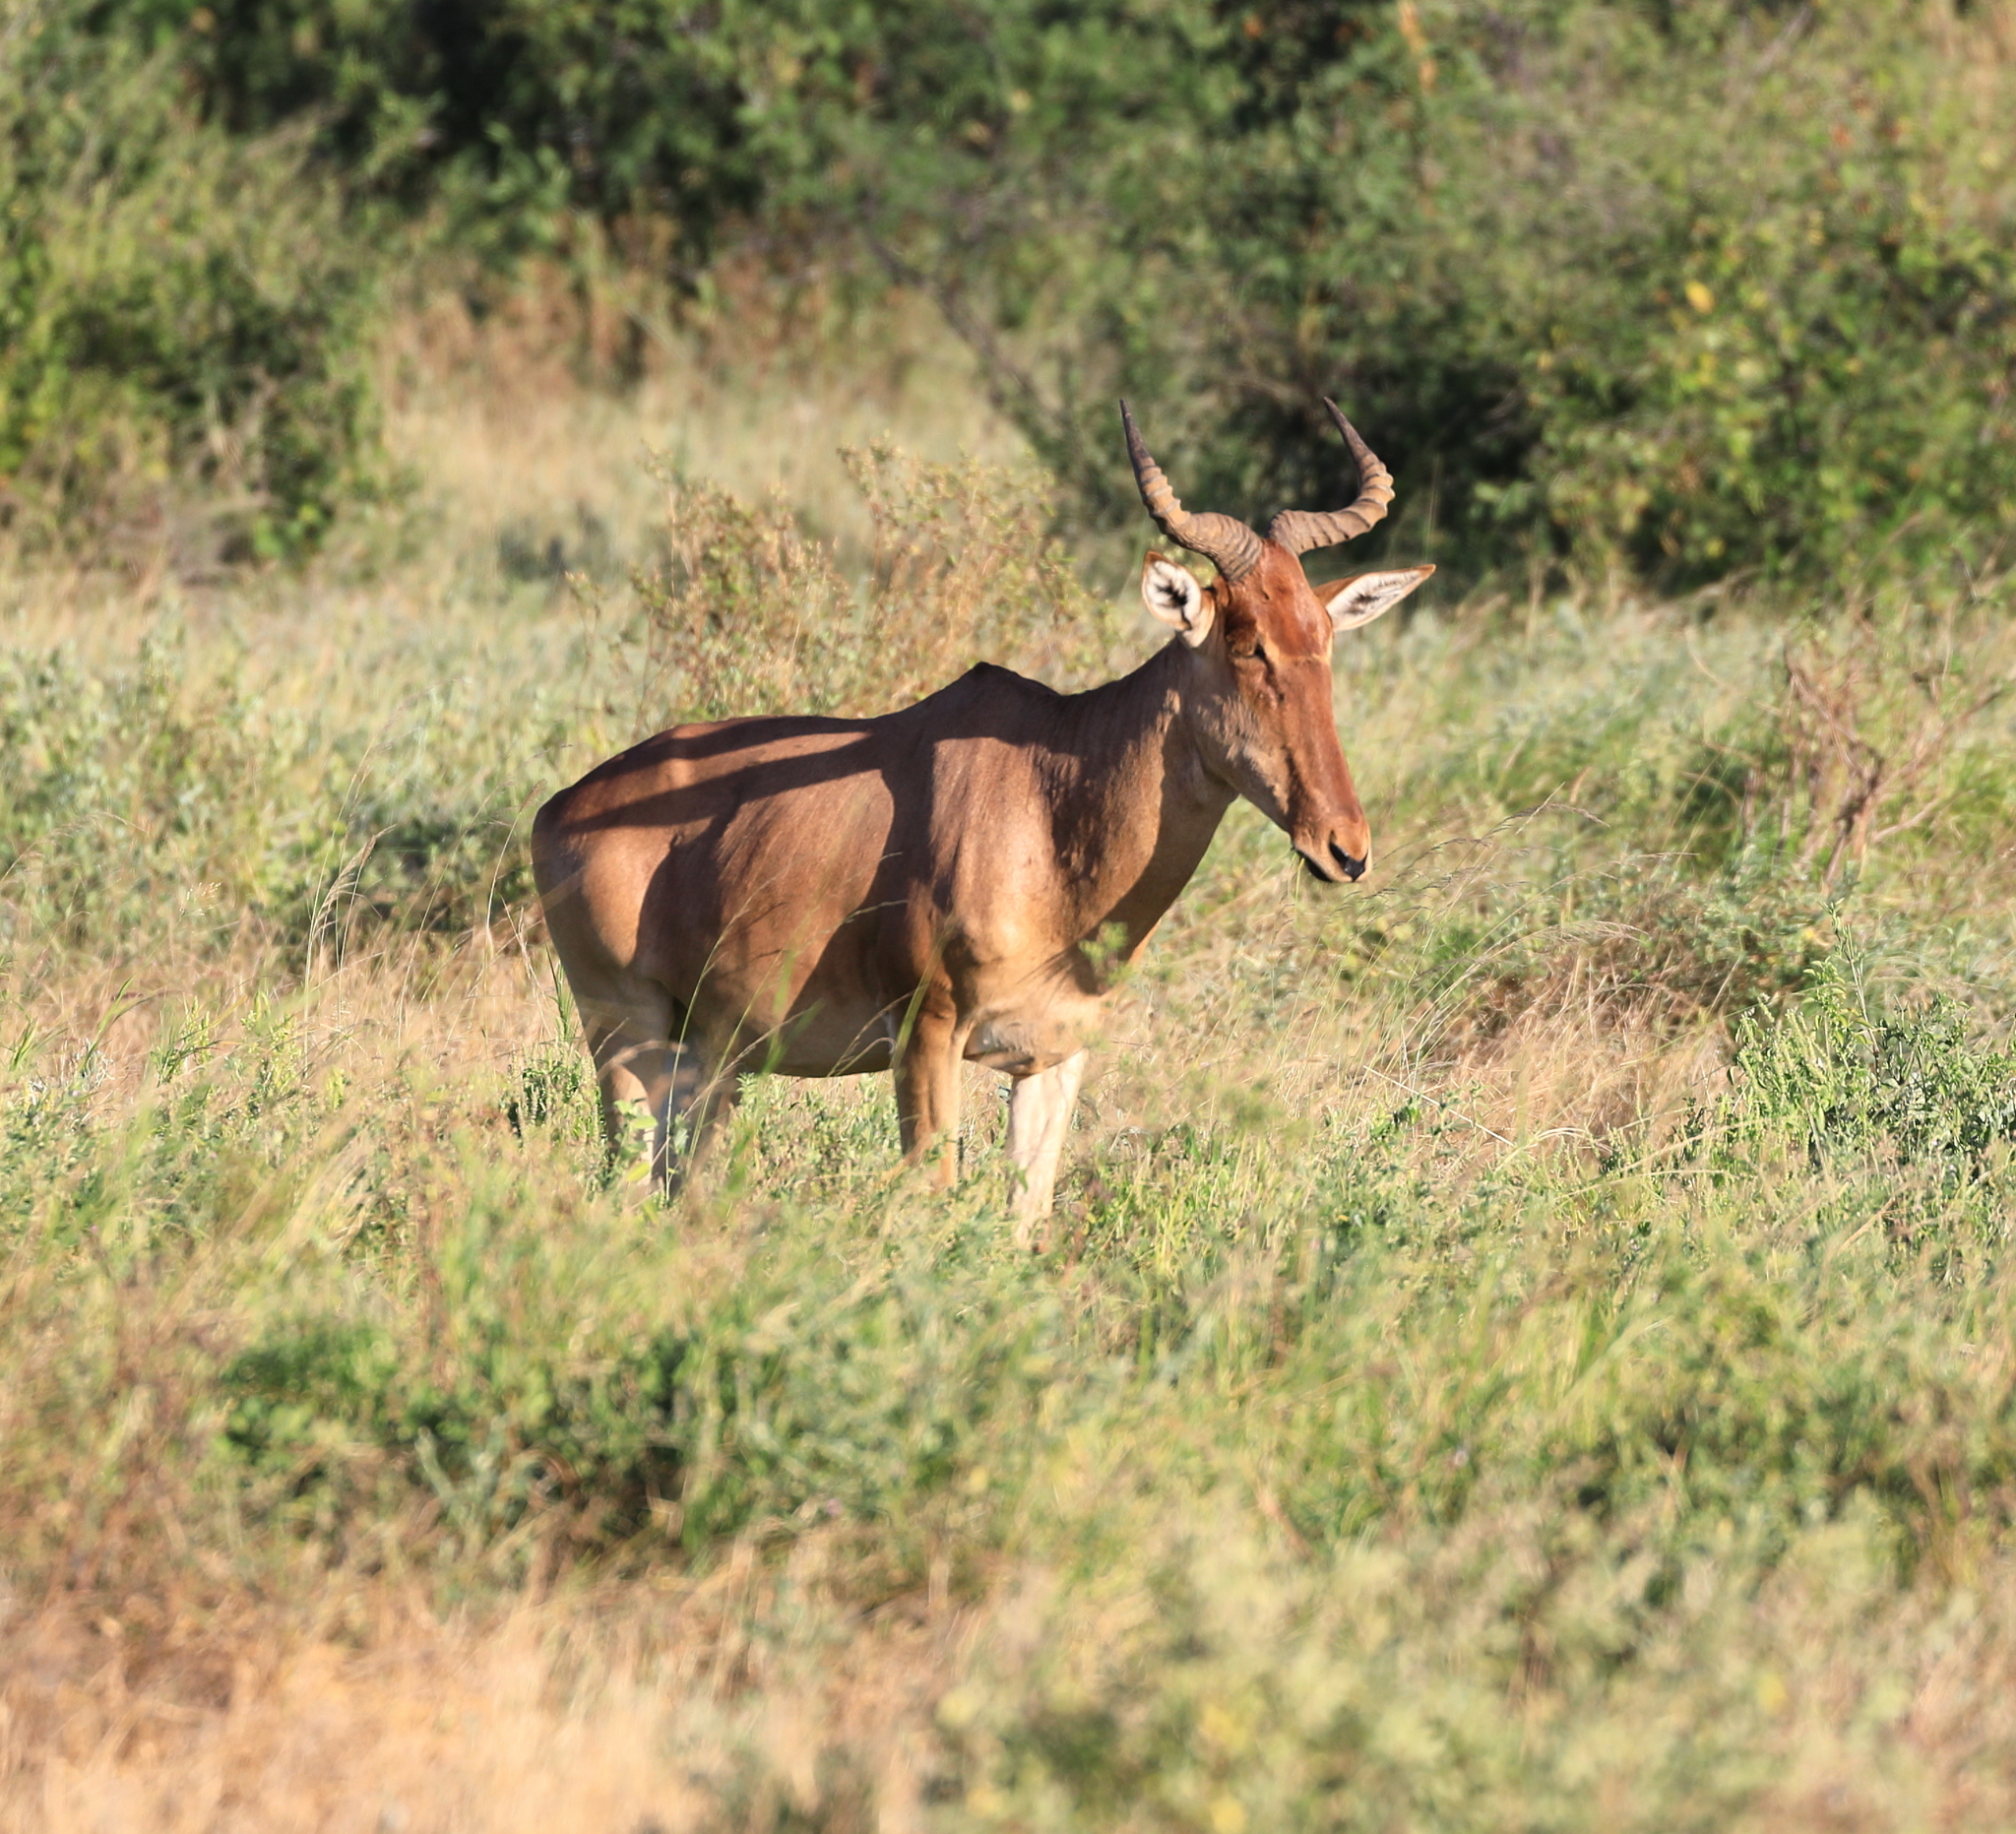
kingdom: Animalia
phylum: Chordata
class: Mammalia
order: Artiodactyla
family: Bovidae
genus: Alcelaphus
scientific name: Alcelaphus buselaphus
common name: Hartebeest
